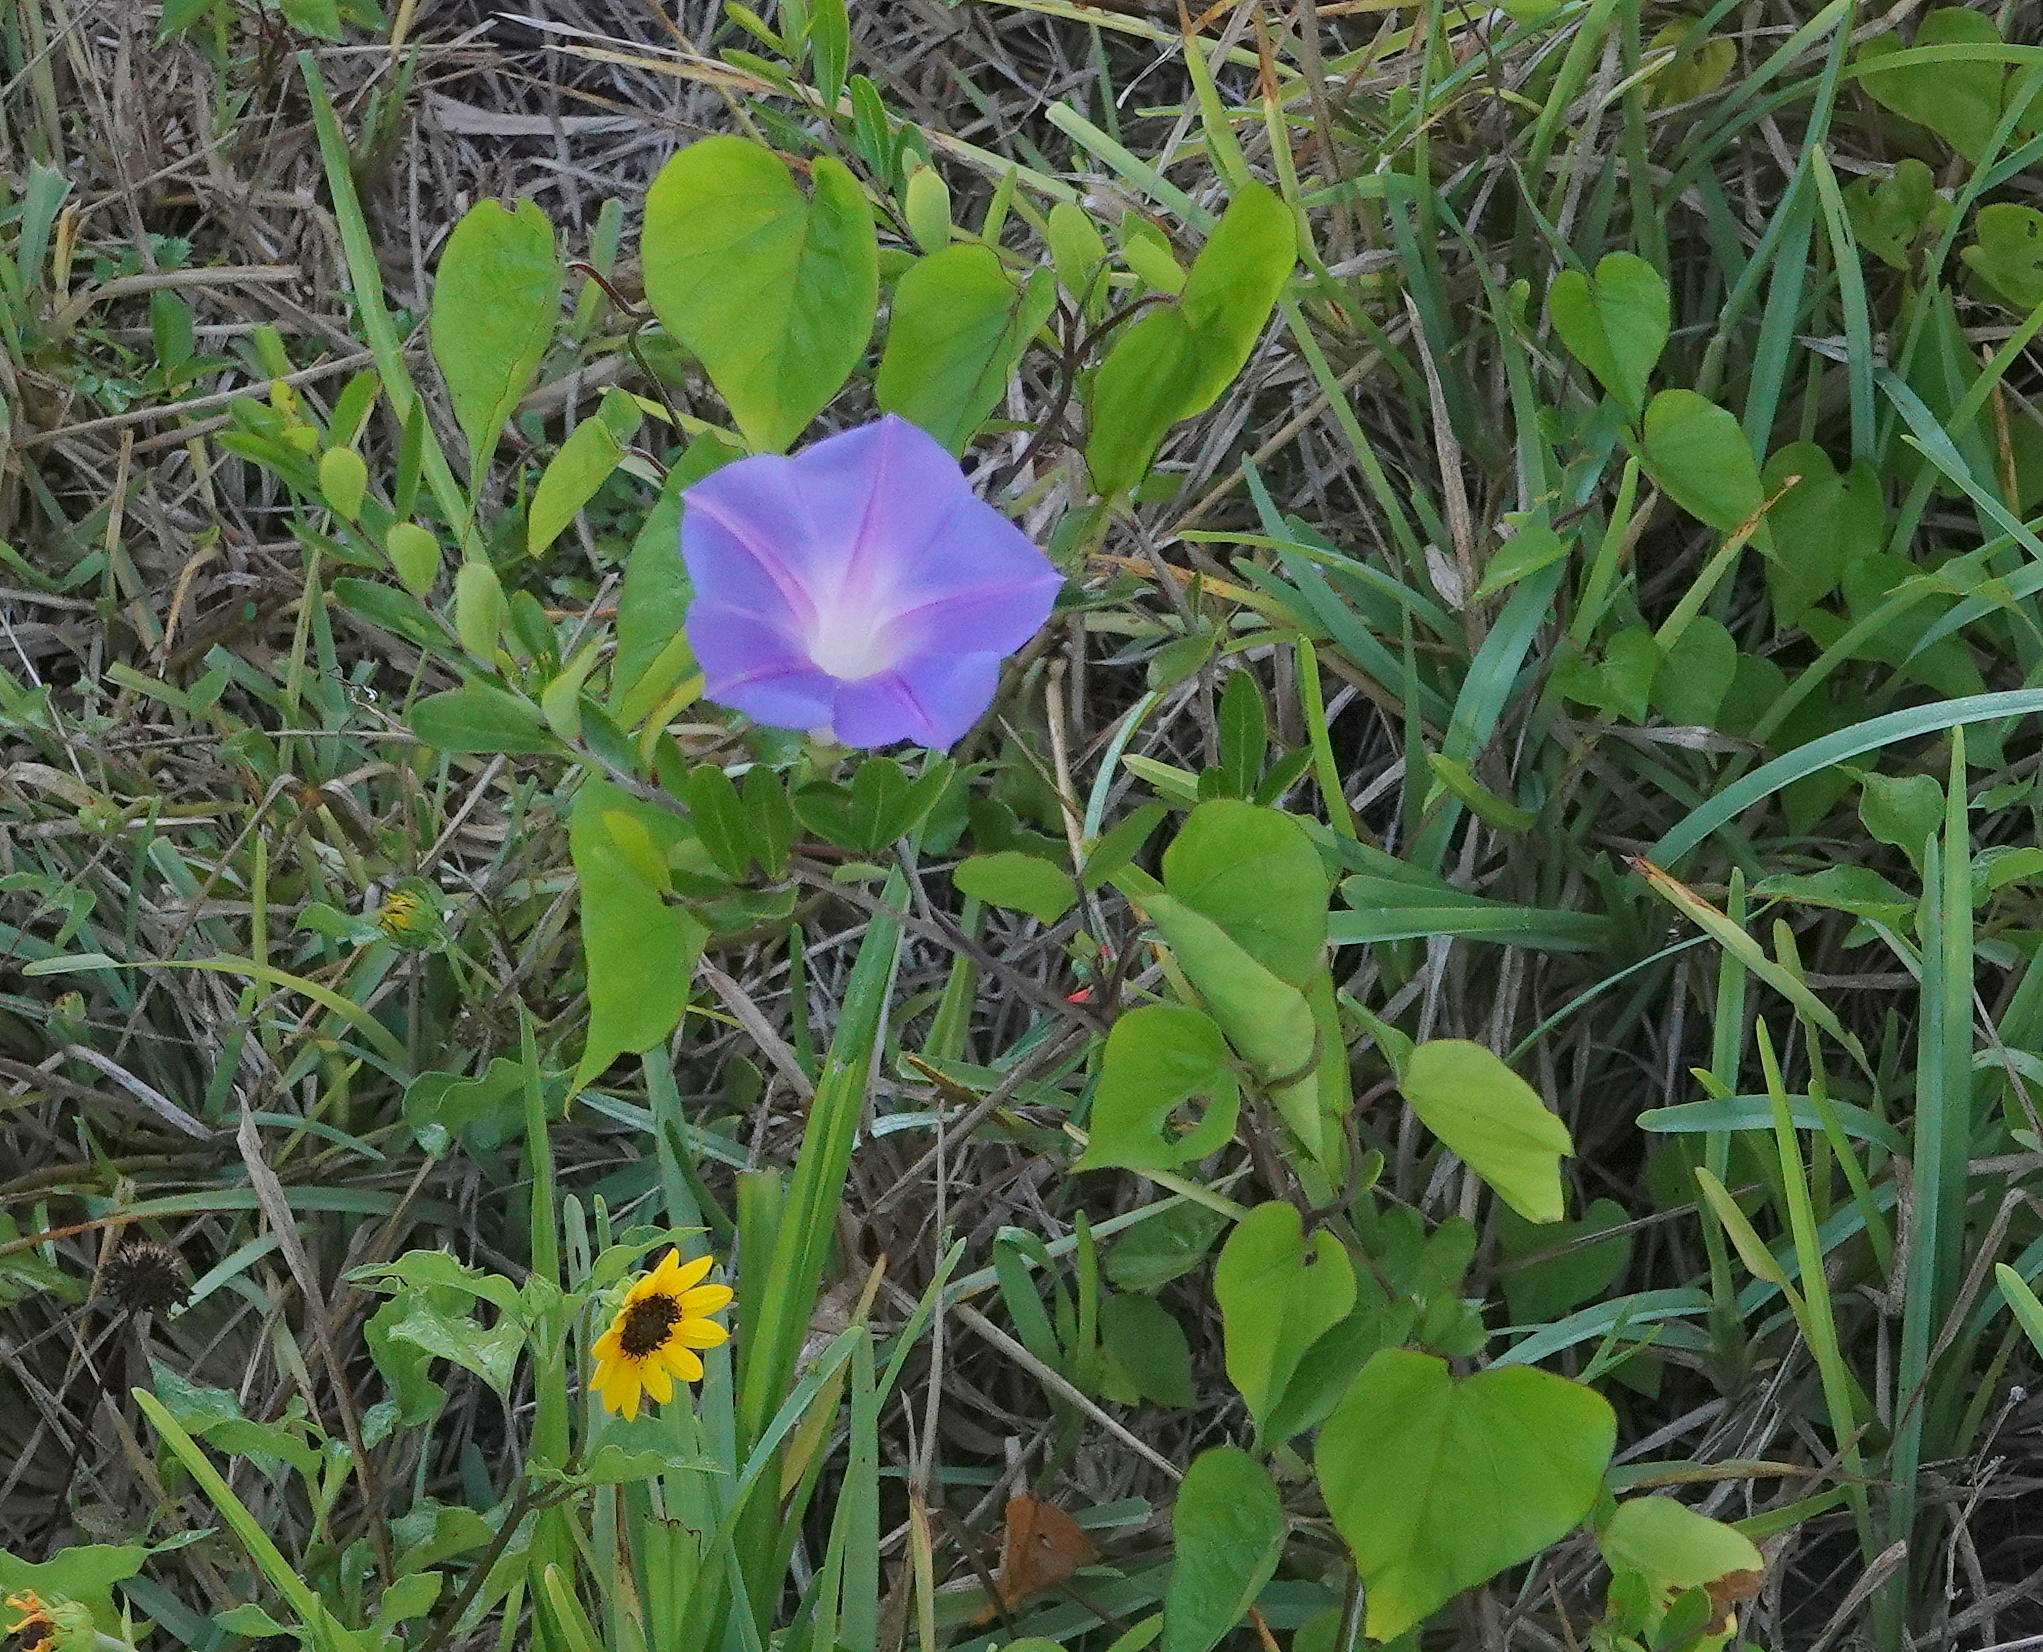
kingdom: Plantae
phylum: Tracheophyta
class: Magnoliopsida
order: Solanales
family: Convolvulaceae
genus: Ipomoea
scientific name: Ipomoea indica
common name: Blue dawnflower
